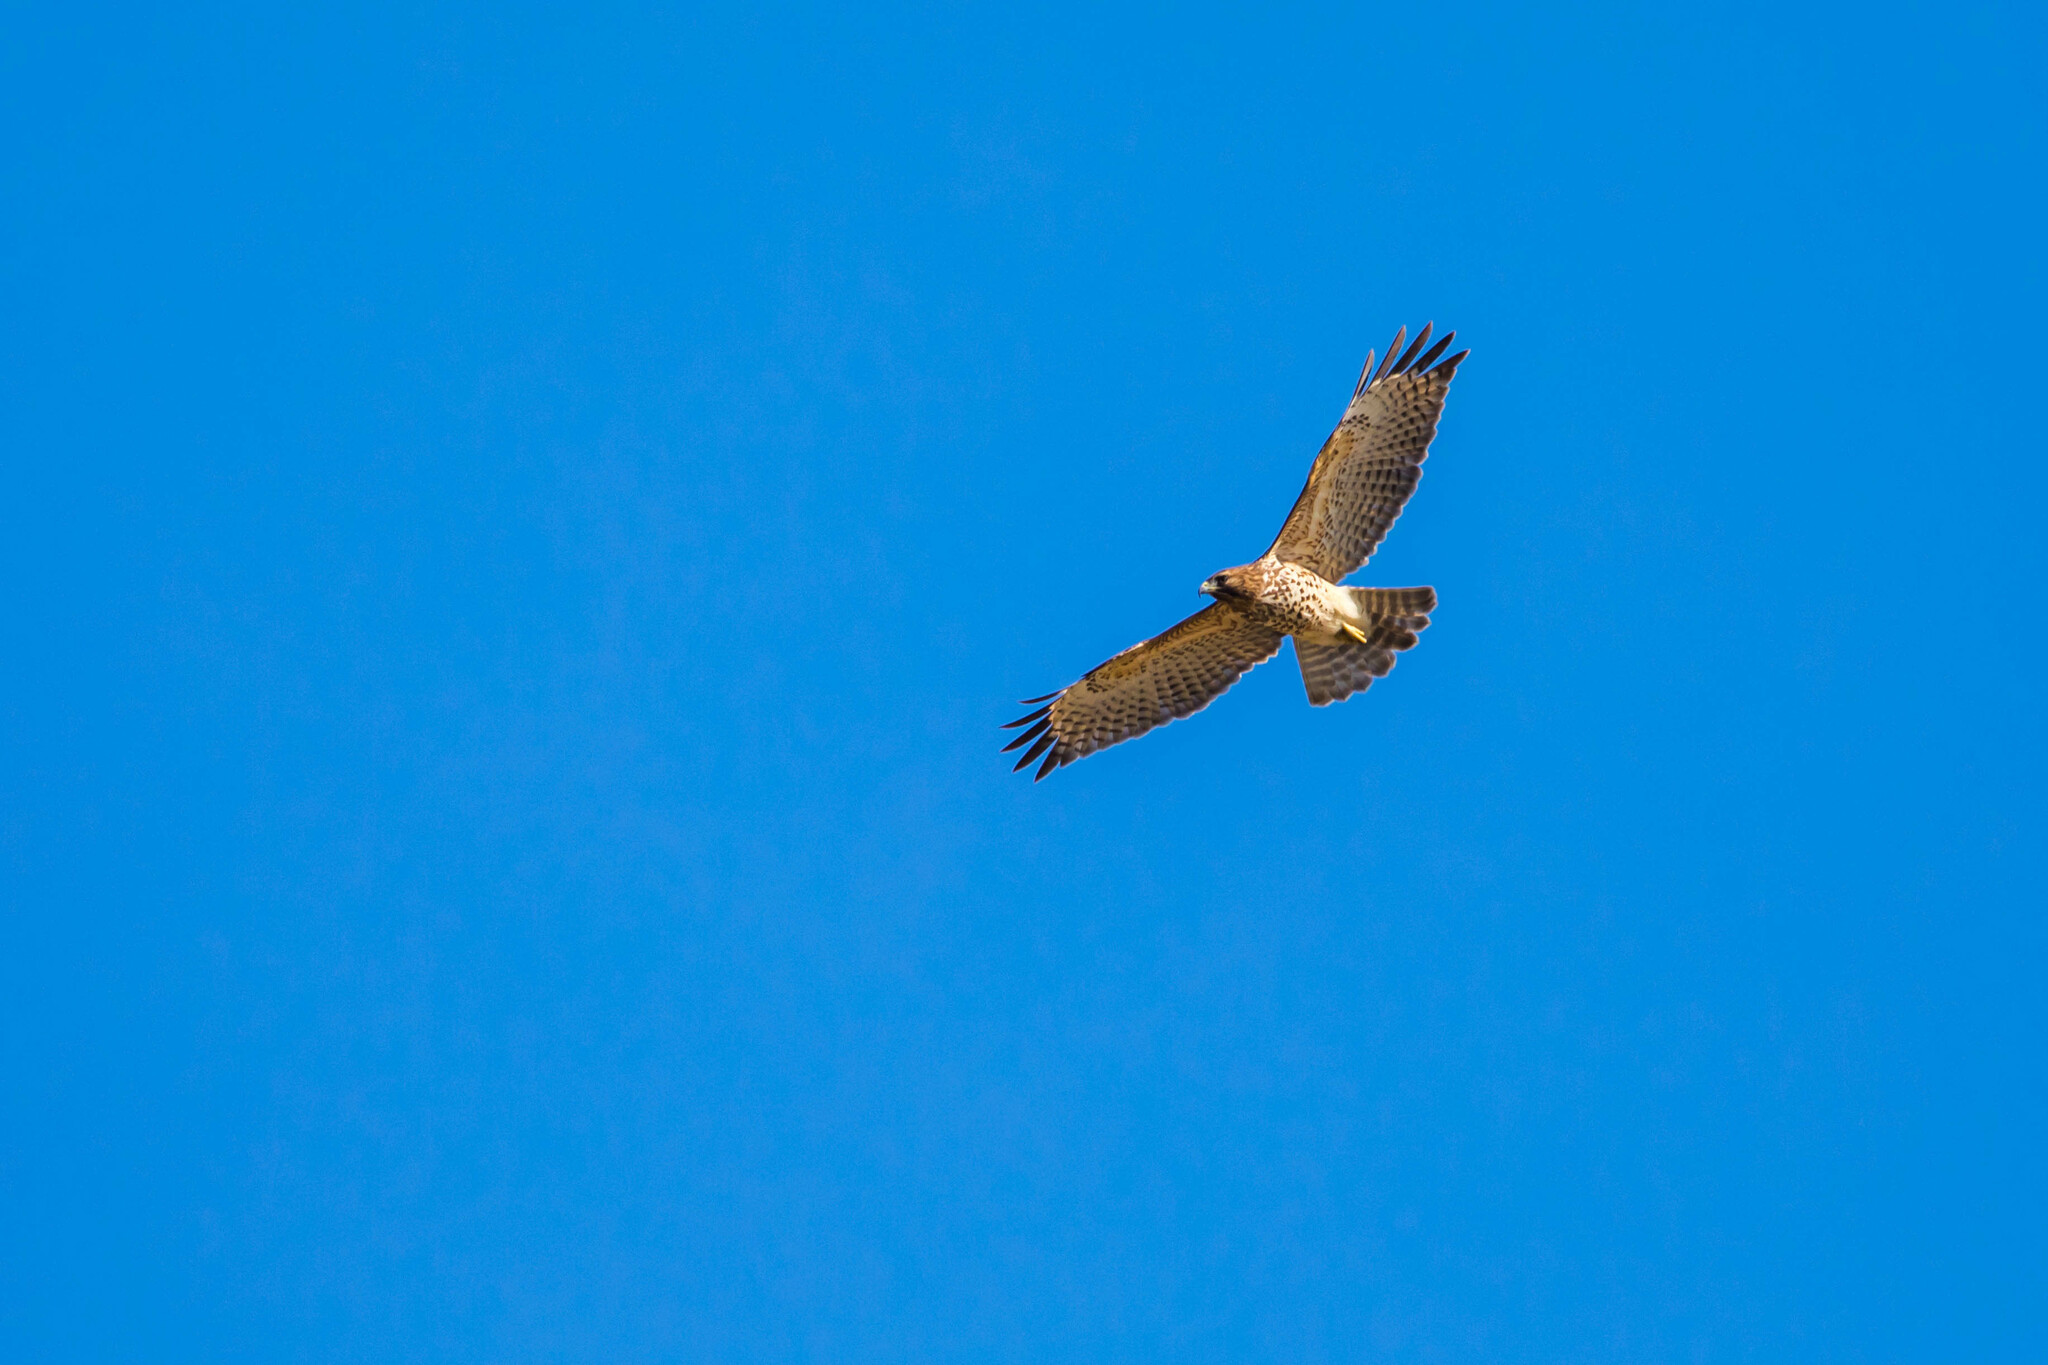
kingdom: Animalia
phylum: Chordata
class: Aves
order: Accipitriformes
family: Accipitridae
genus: Buteo
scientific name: Buteo lineatus
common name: Red-shouldered hawk
